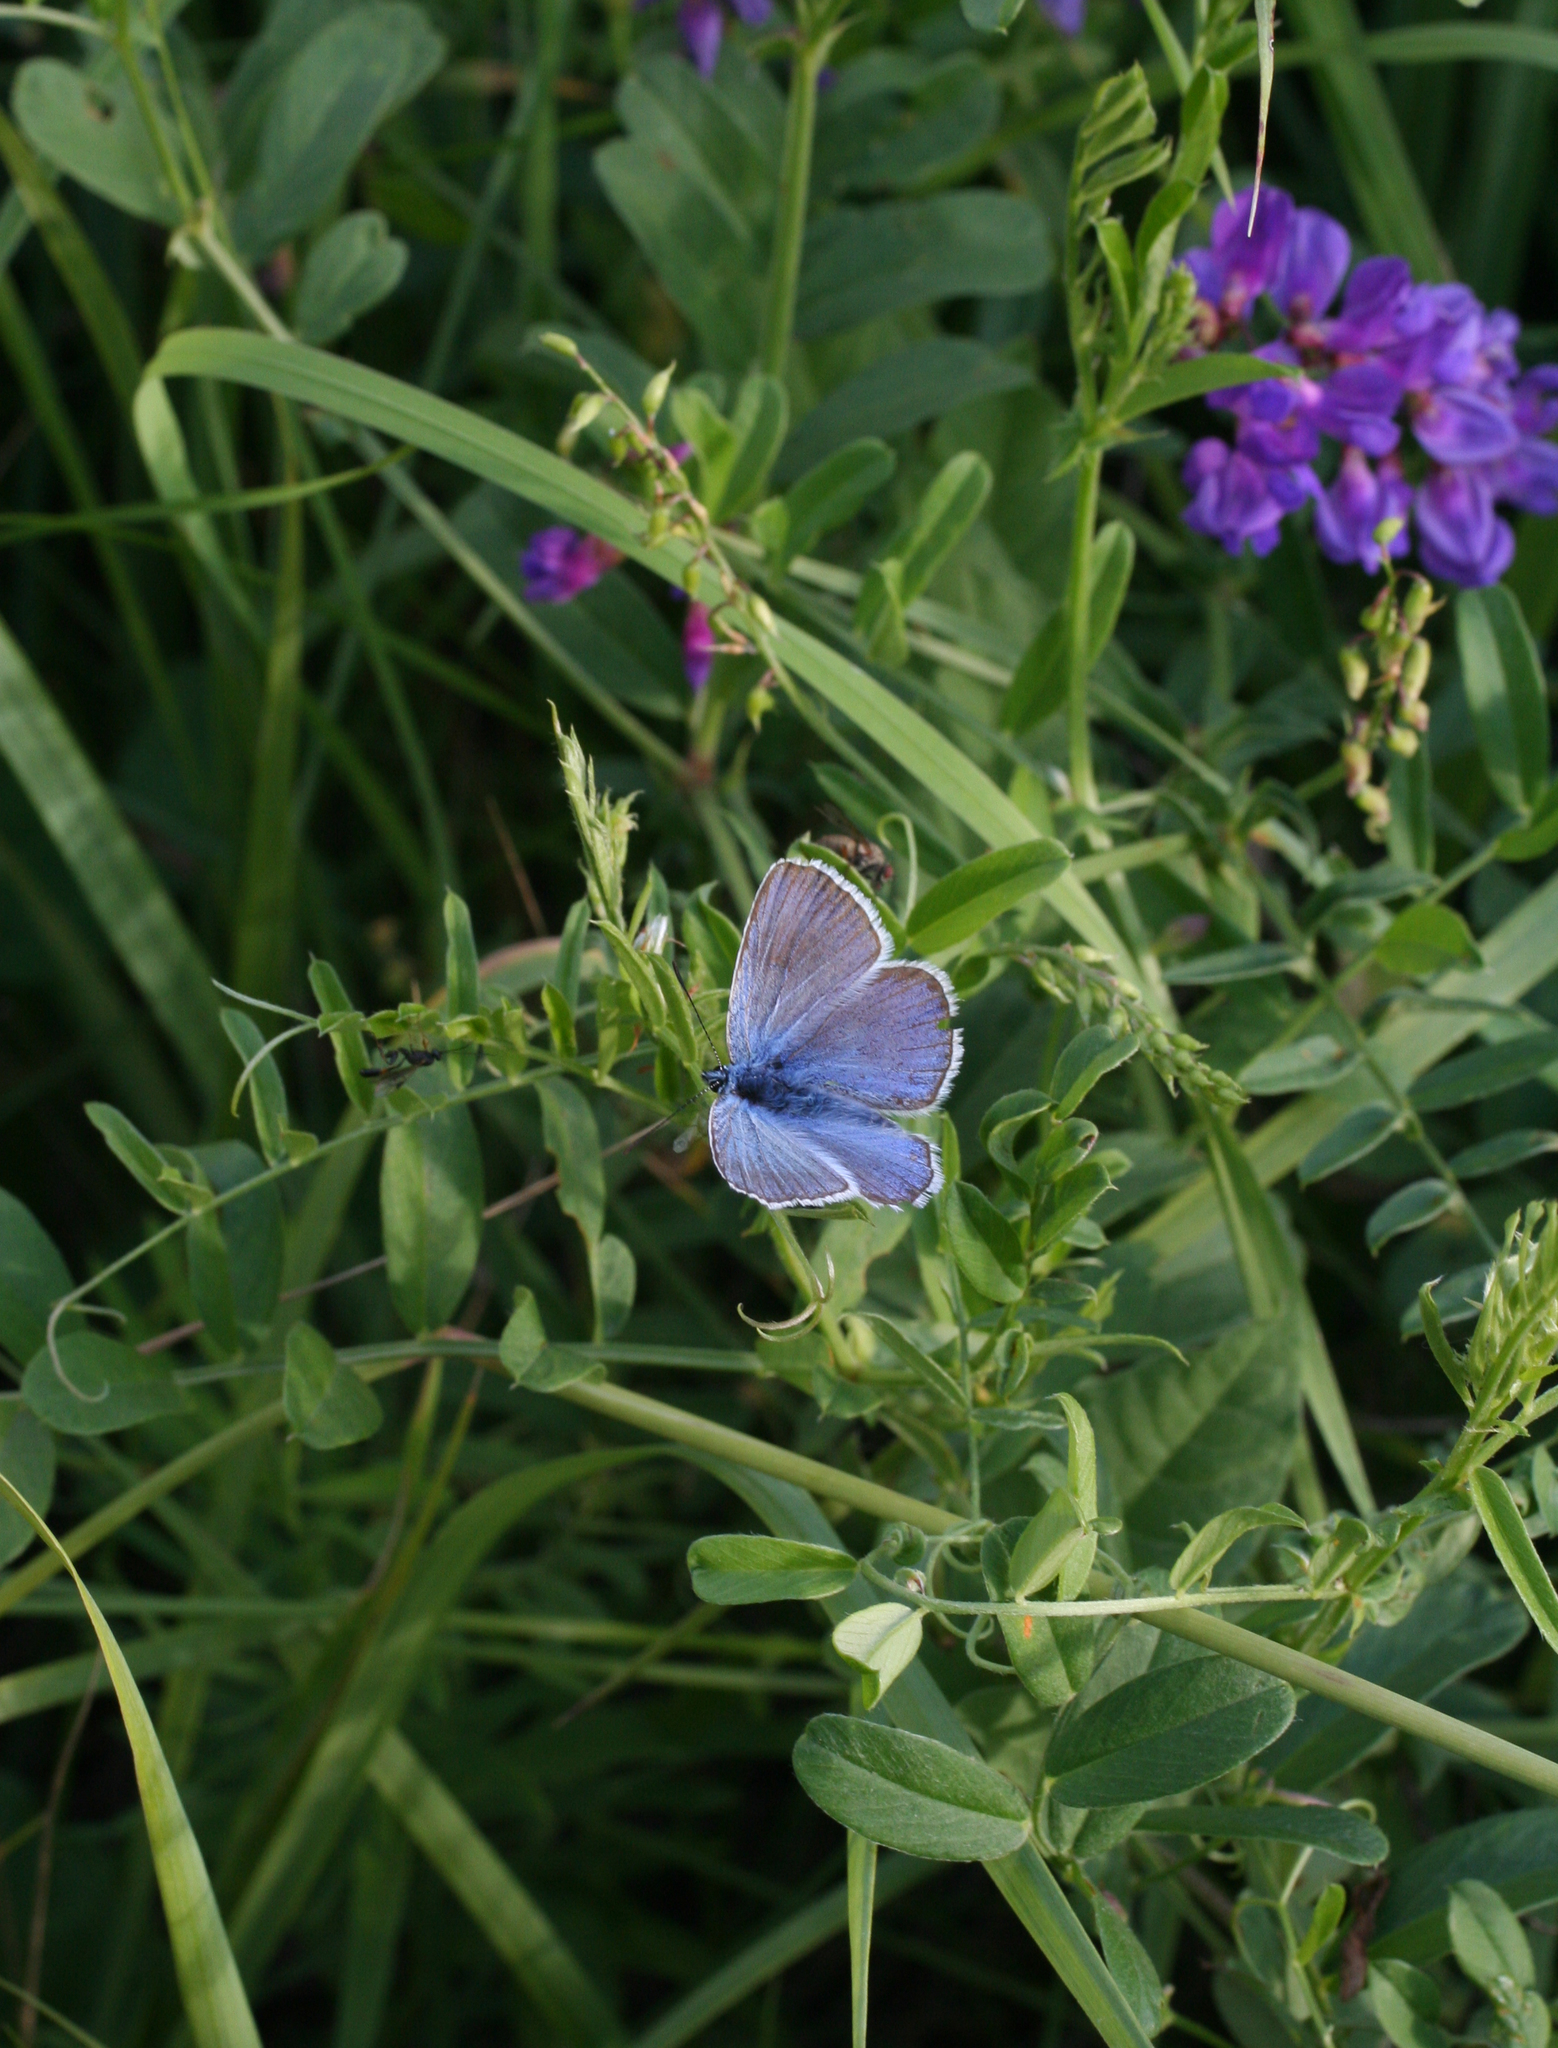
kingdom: Animalia
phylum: Arthropoda
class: Insecta
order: Lepidoptera
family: Lycaenidae
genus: Plebejus
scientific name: Plebejus amanda
